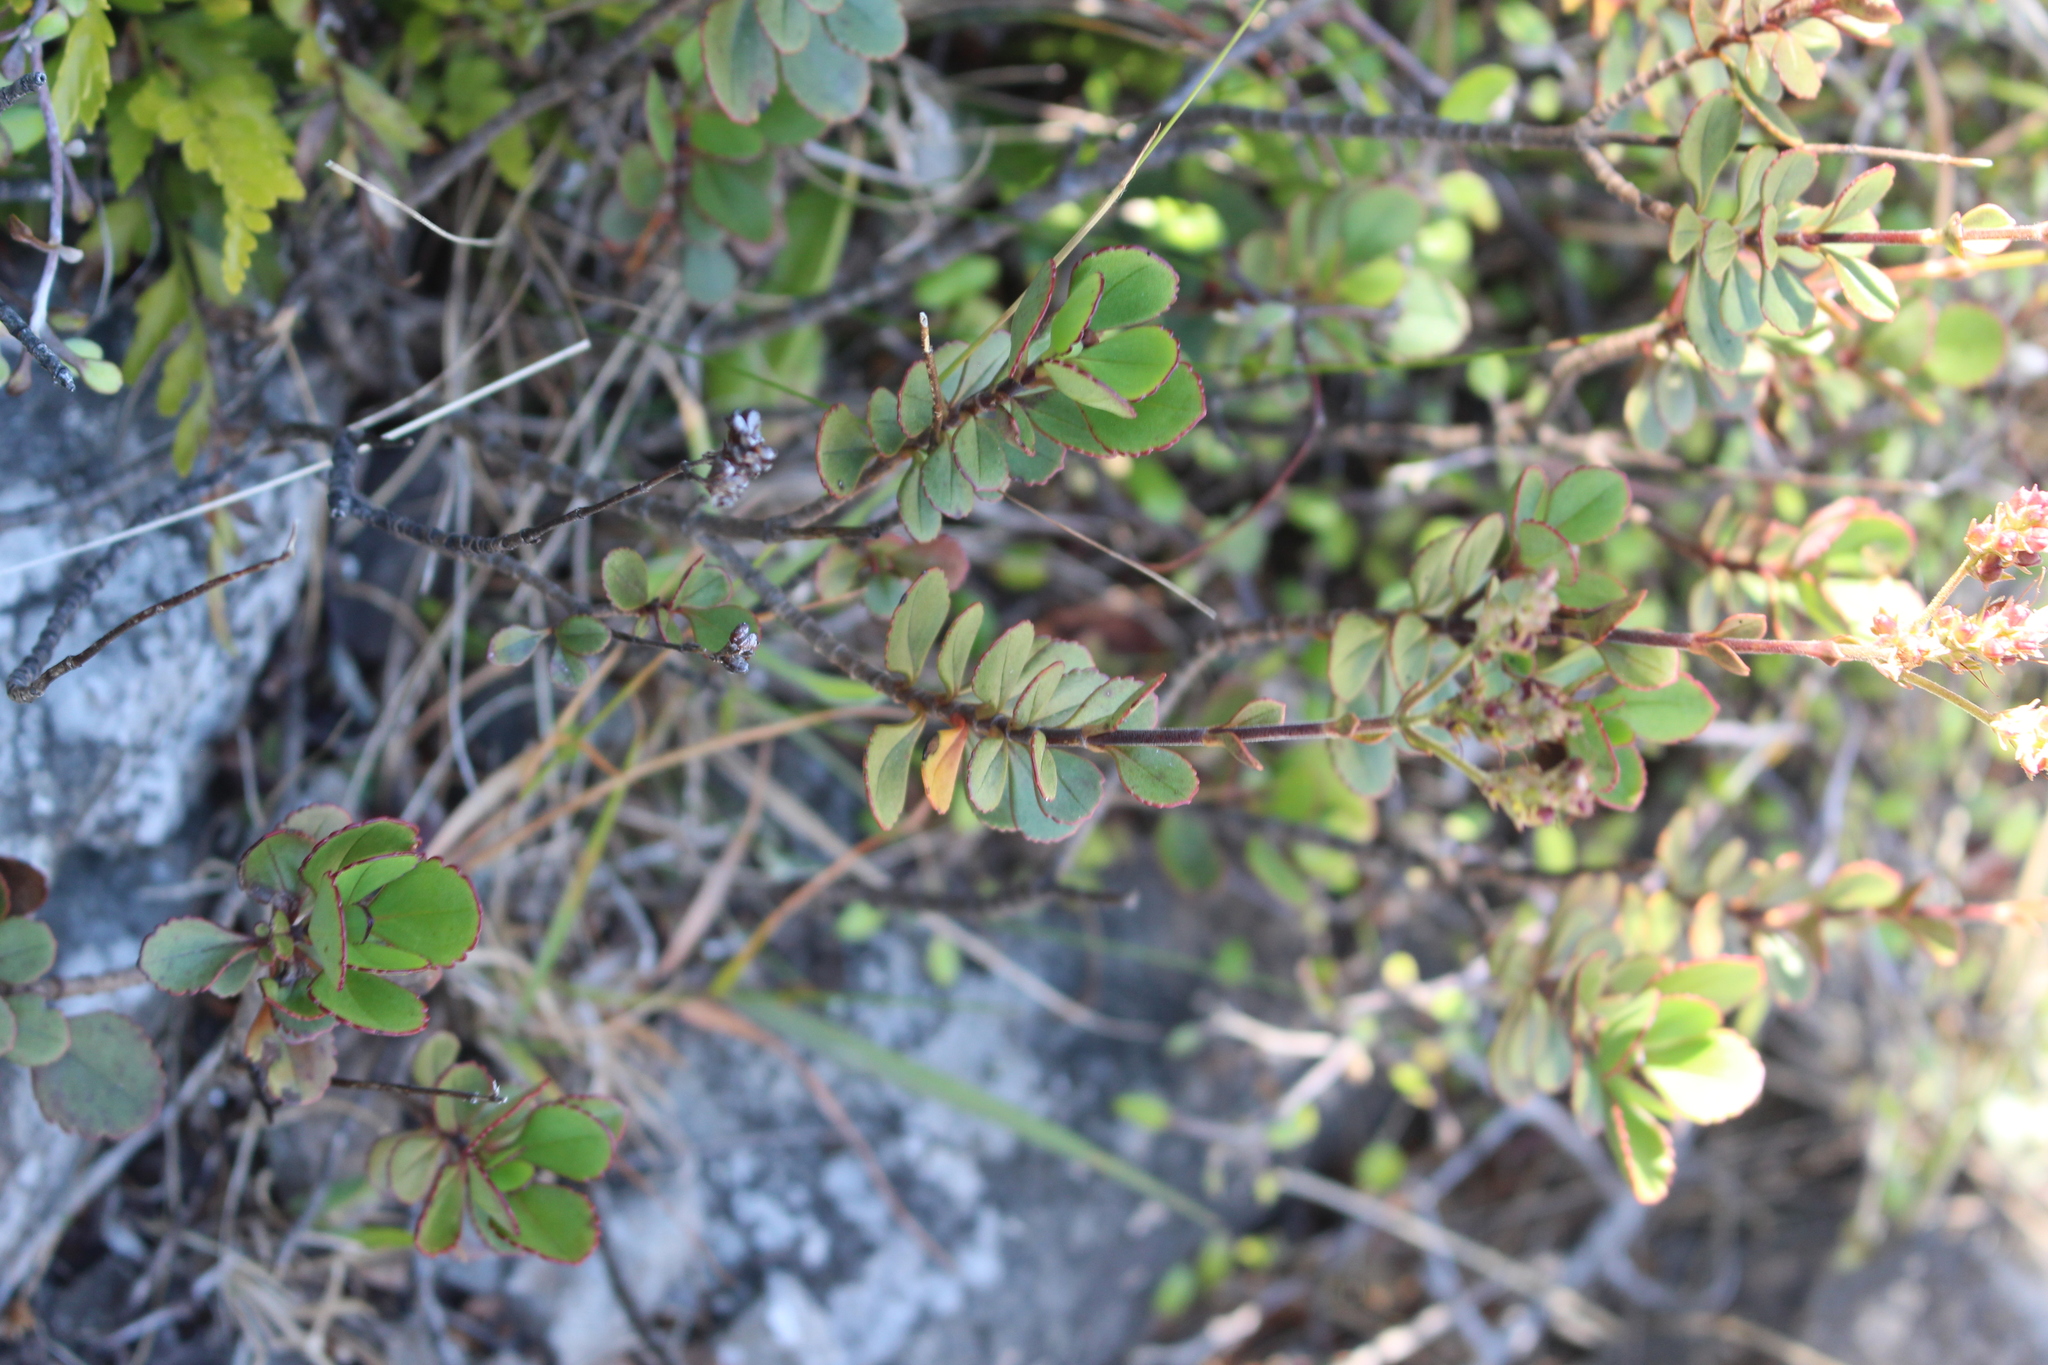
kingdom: Plantae
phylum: Tracheophyta
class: Magnoliopsida
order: Lamiales
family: Plantaginaceae
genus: Veronica
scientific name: Veronica lavaudiana
